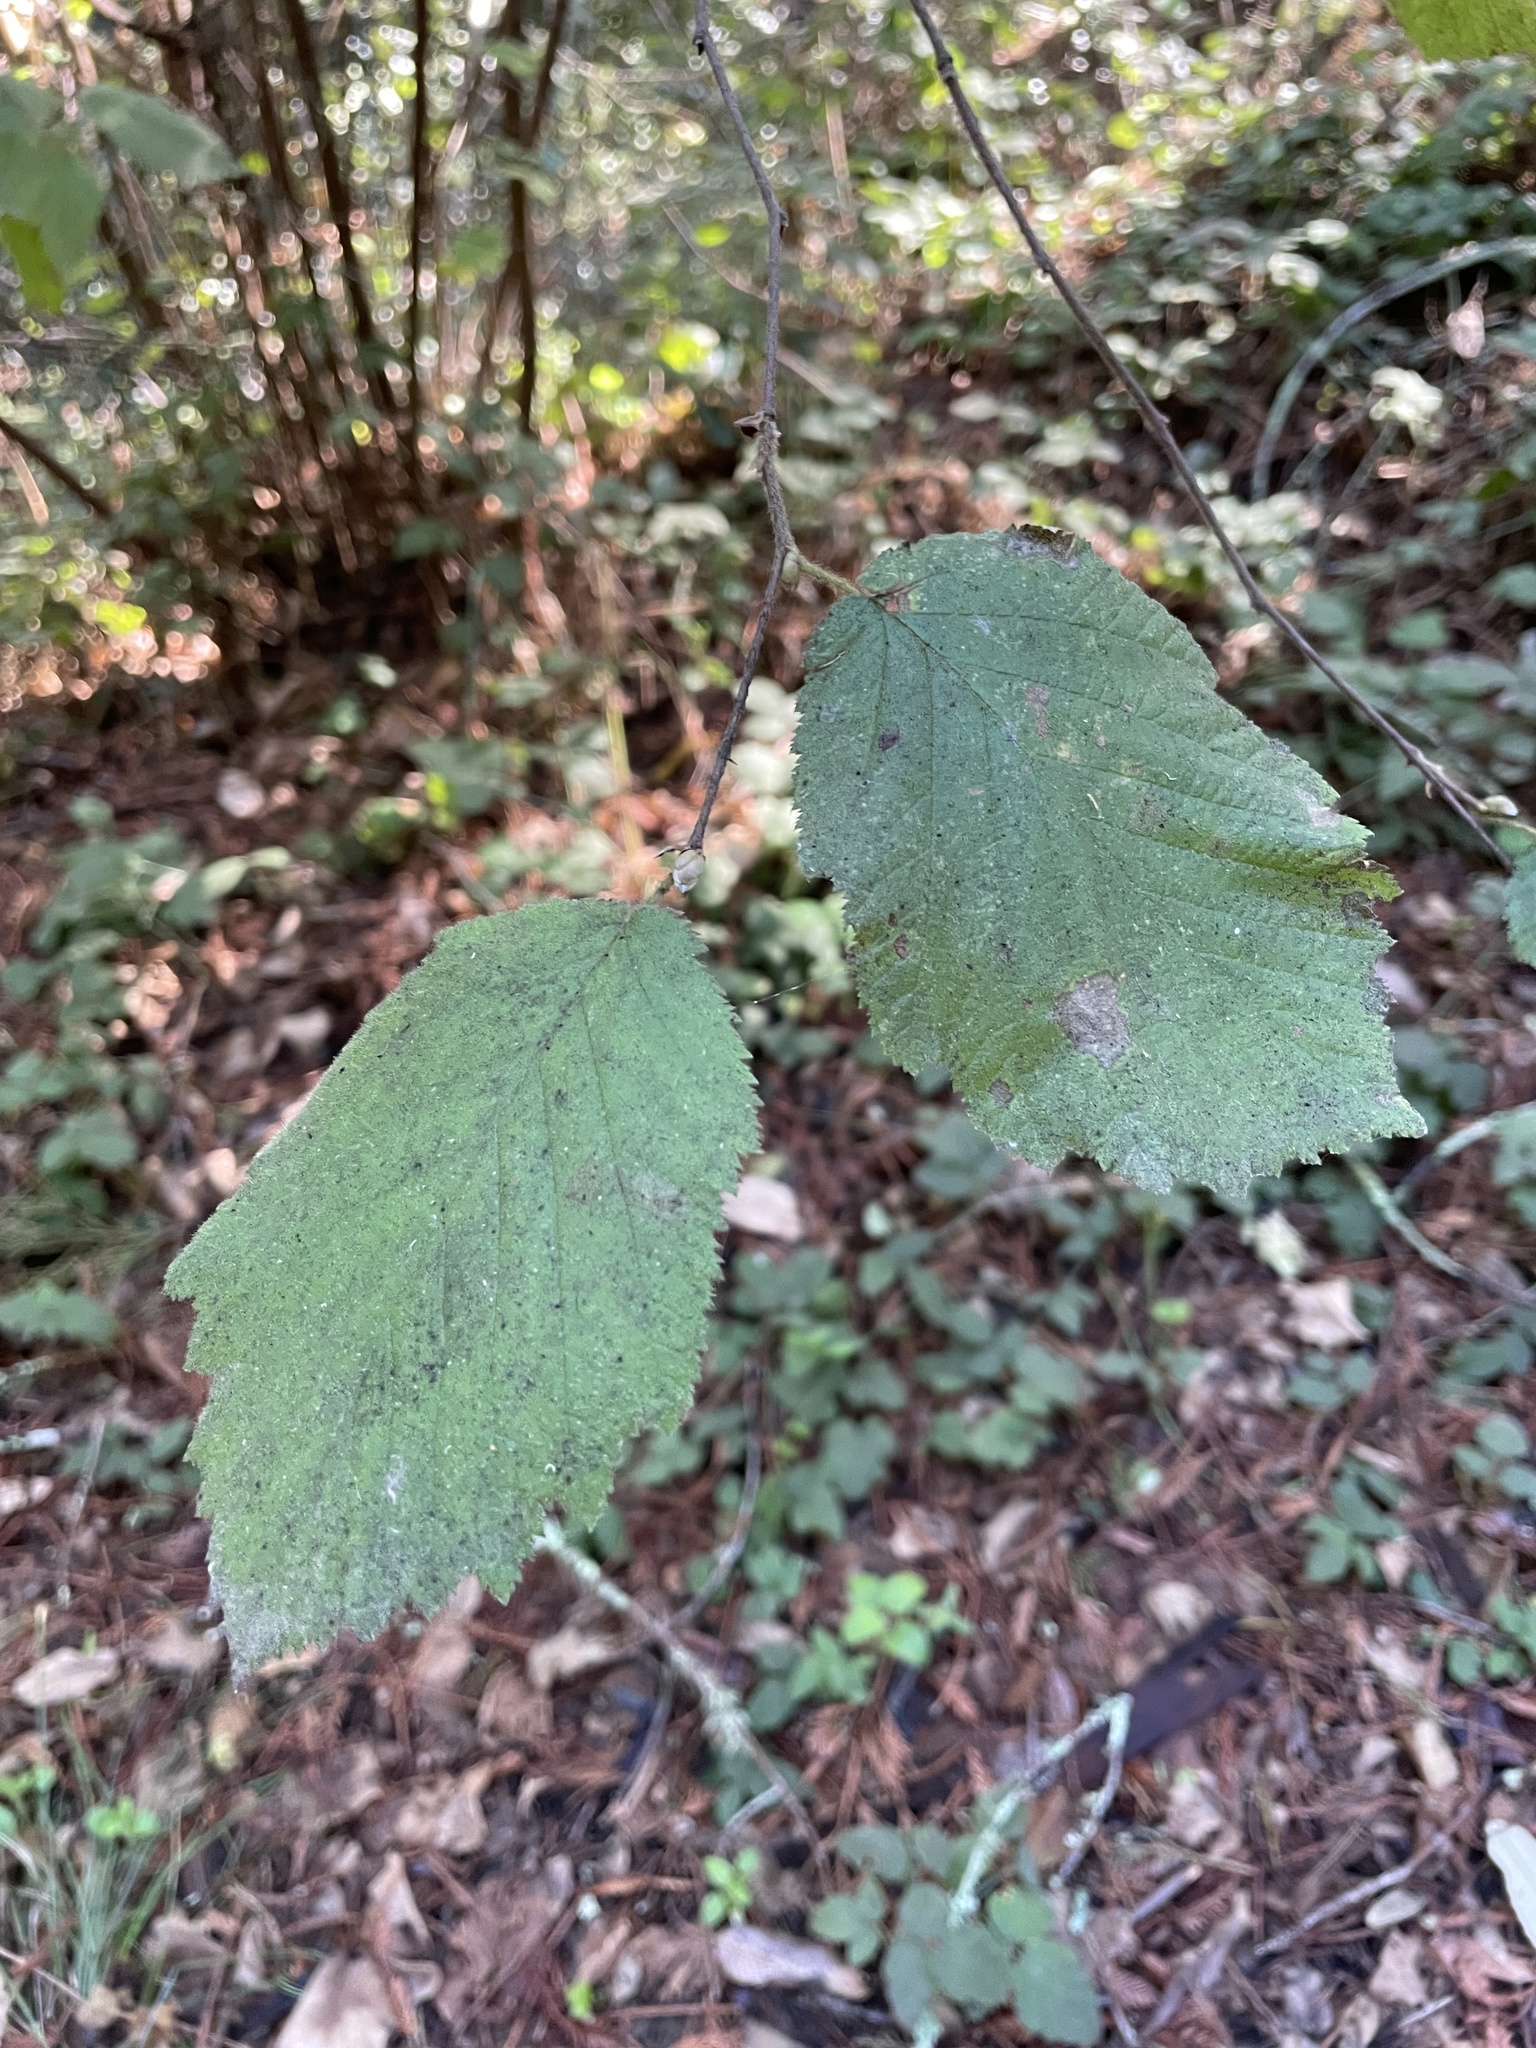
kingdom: Plantae
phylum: Tracheophyta
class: Magnoliopsida
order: Fagales
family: Betulaceae
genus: Corylus
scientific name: Corylus cornuta
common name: Beaked hazel
